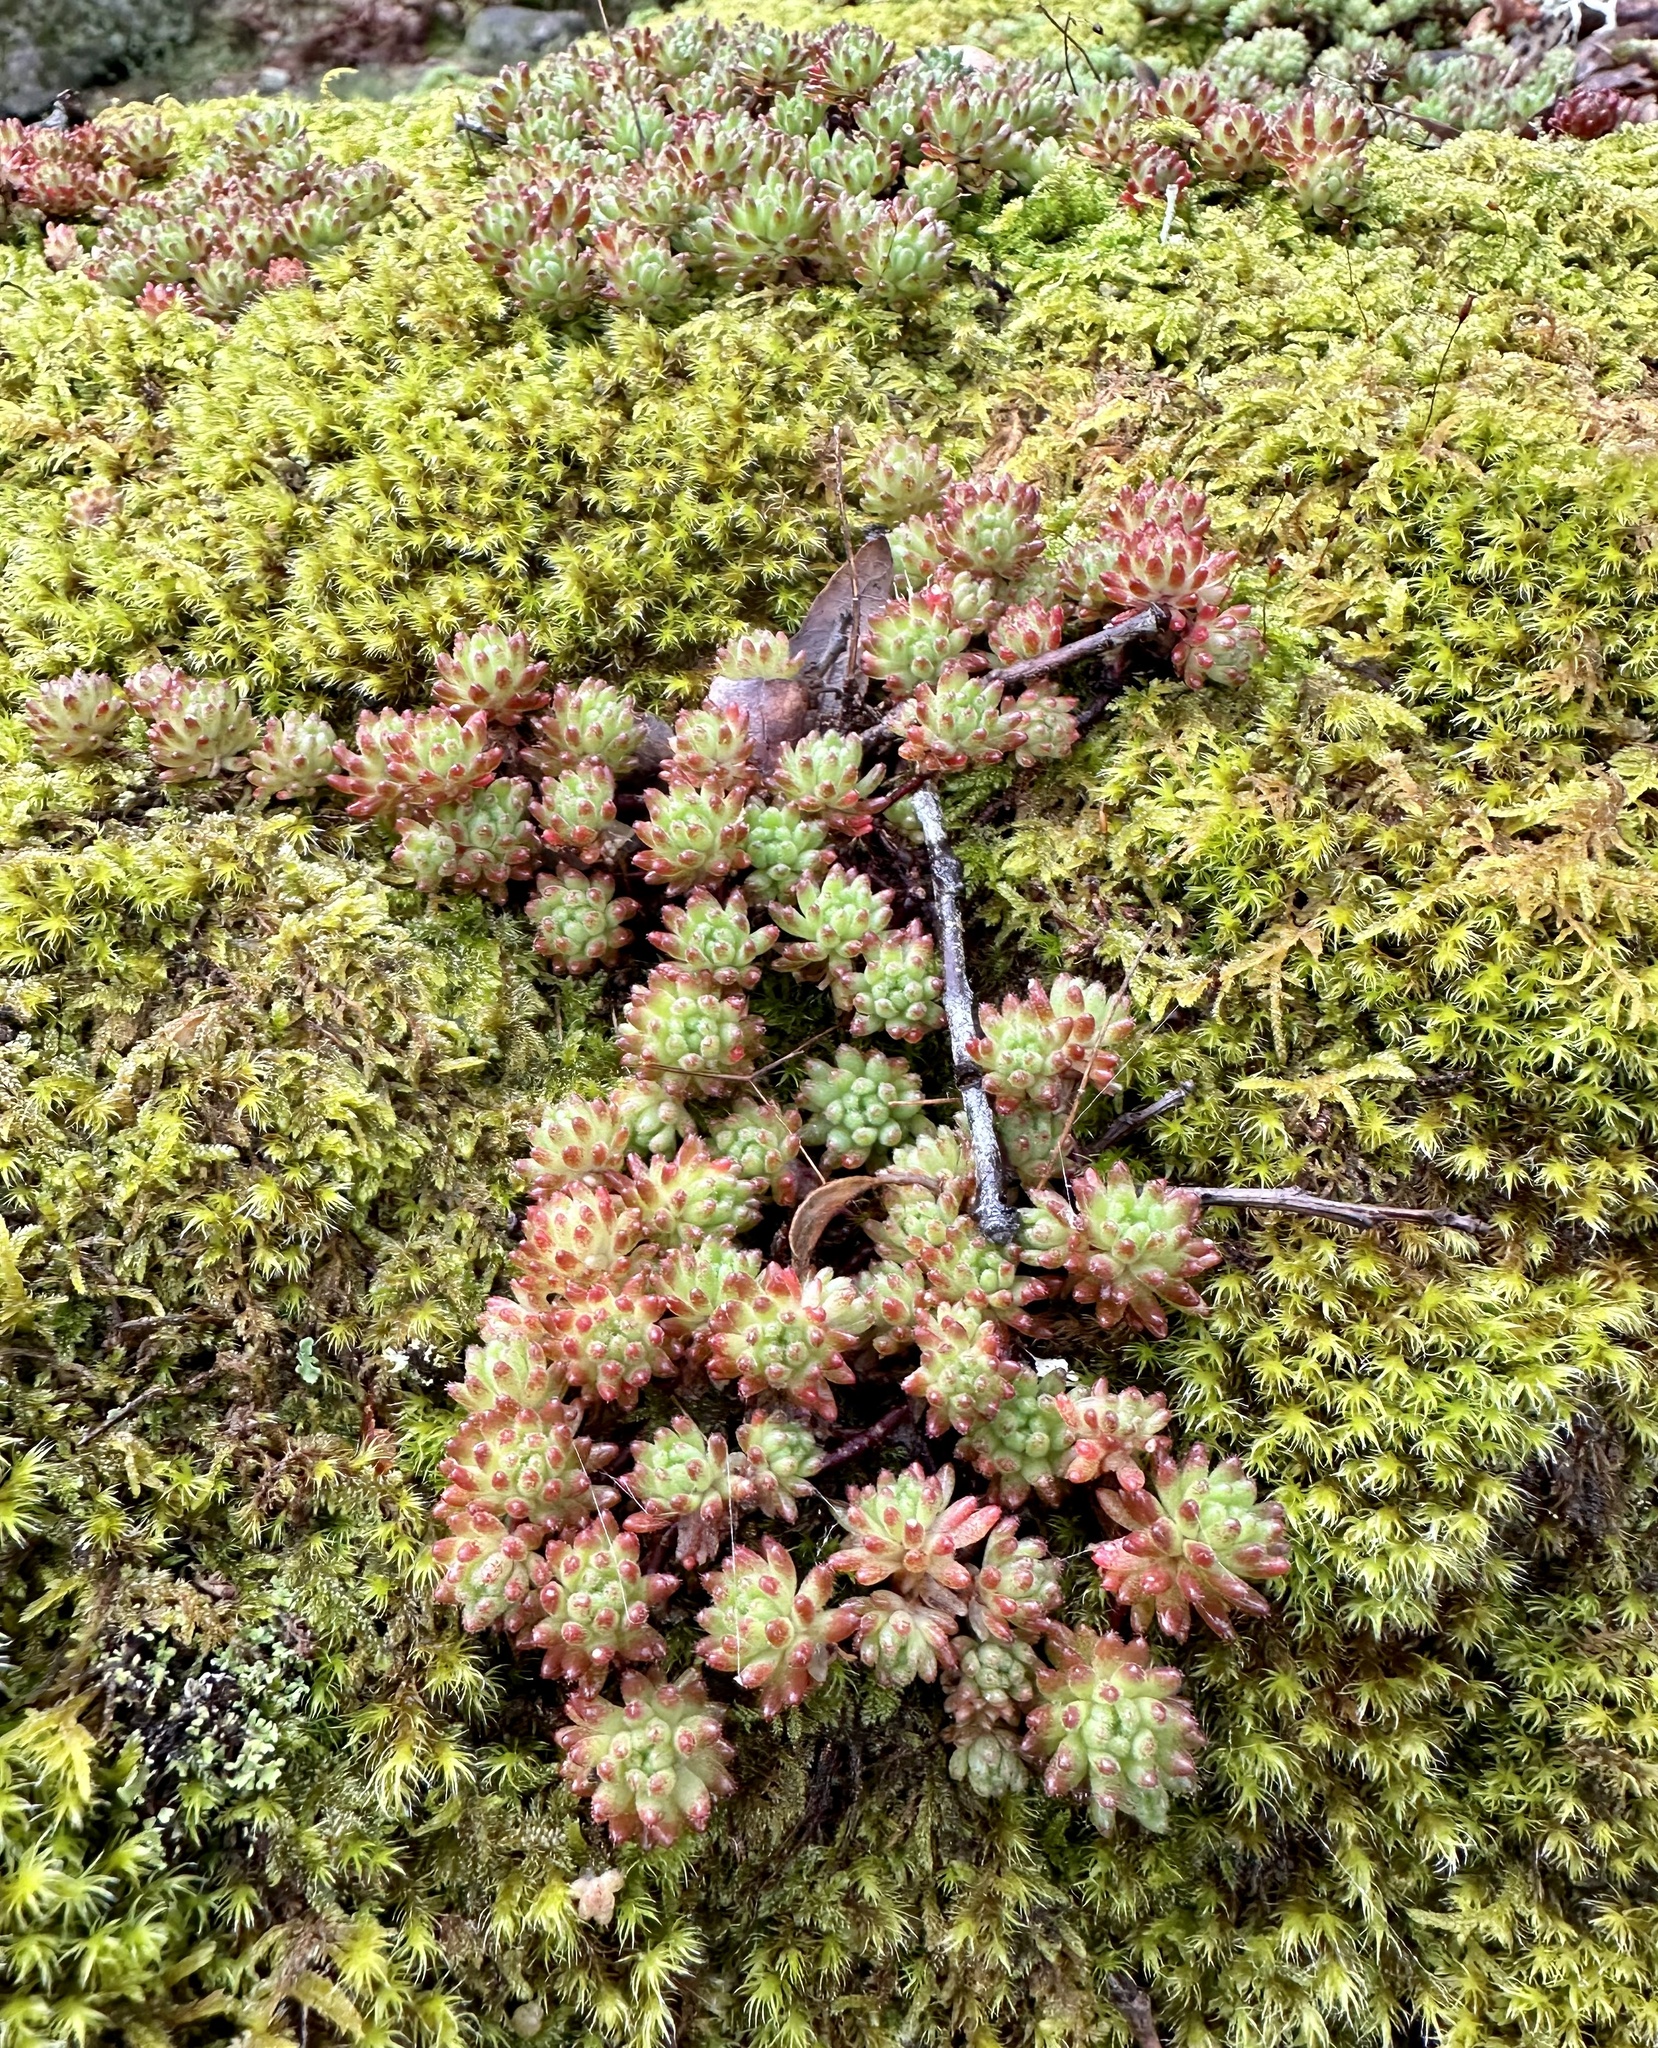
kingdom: Plantae
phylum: Tracheophyta
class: Magnoliopsida
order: Saxifragales
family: Crassulaceae
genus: Sedum
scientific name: Sedum hirsutum
